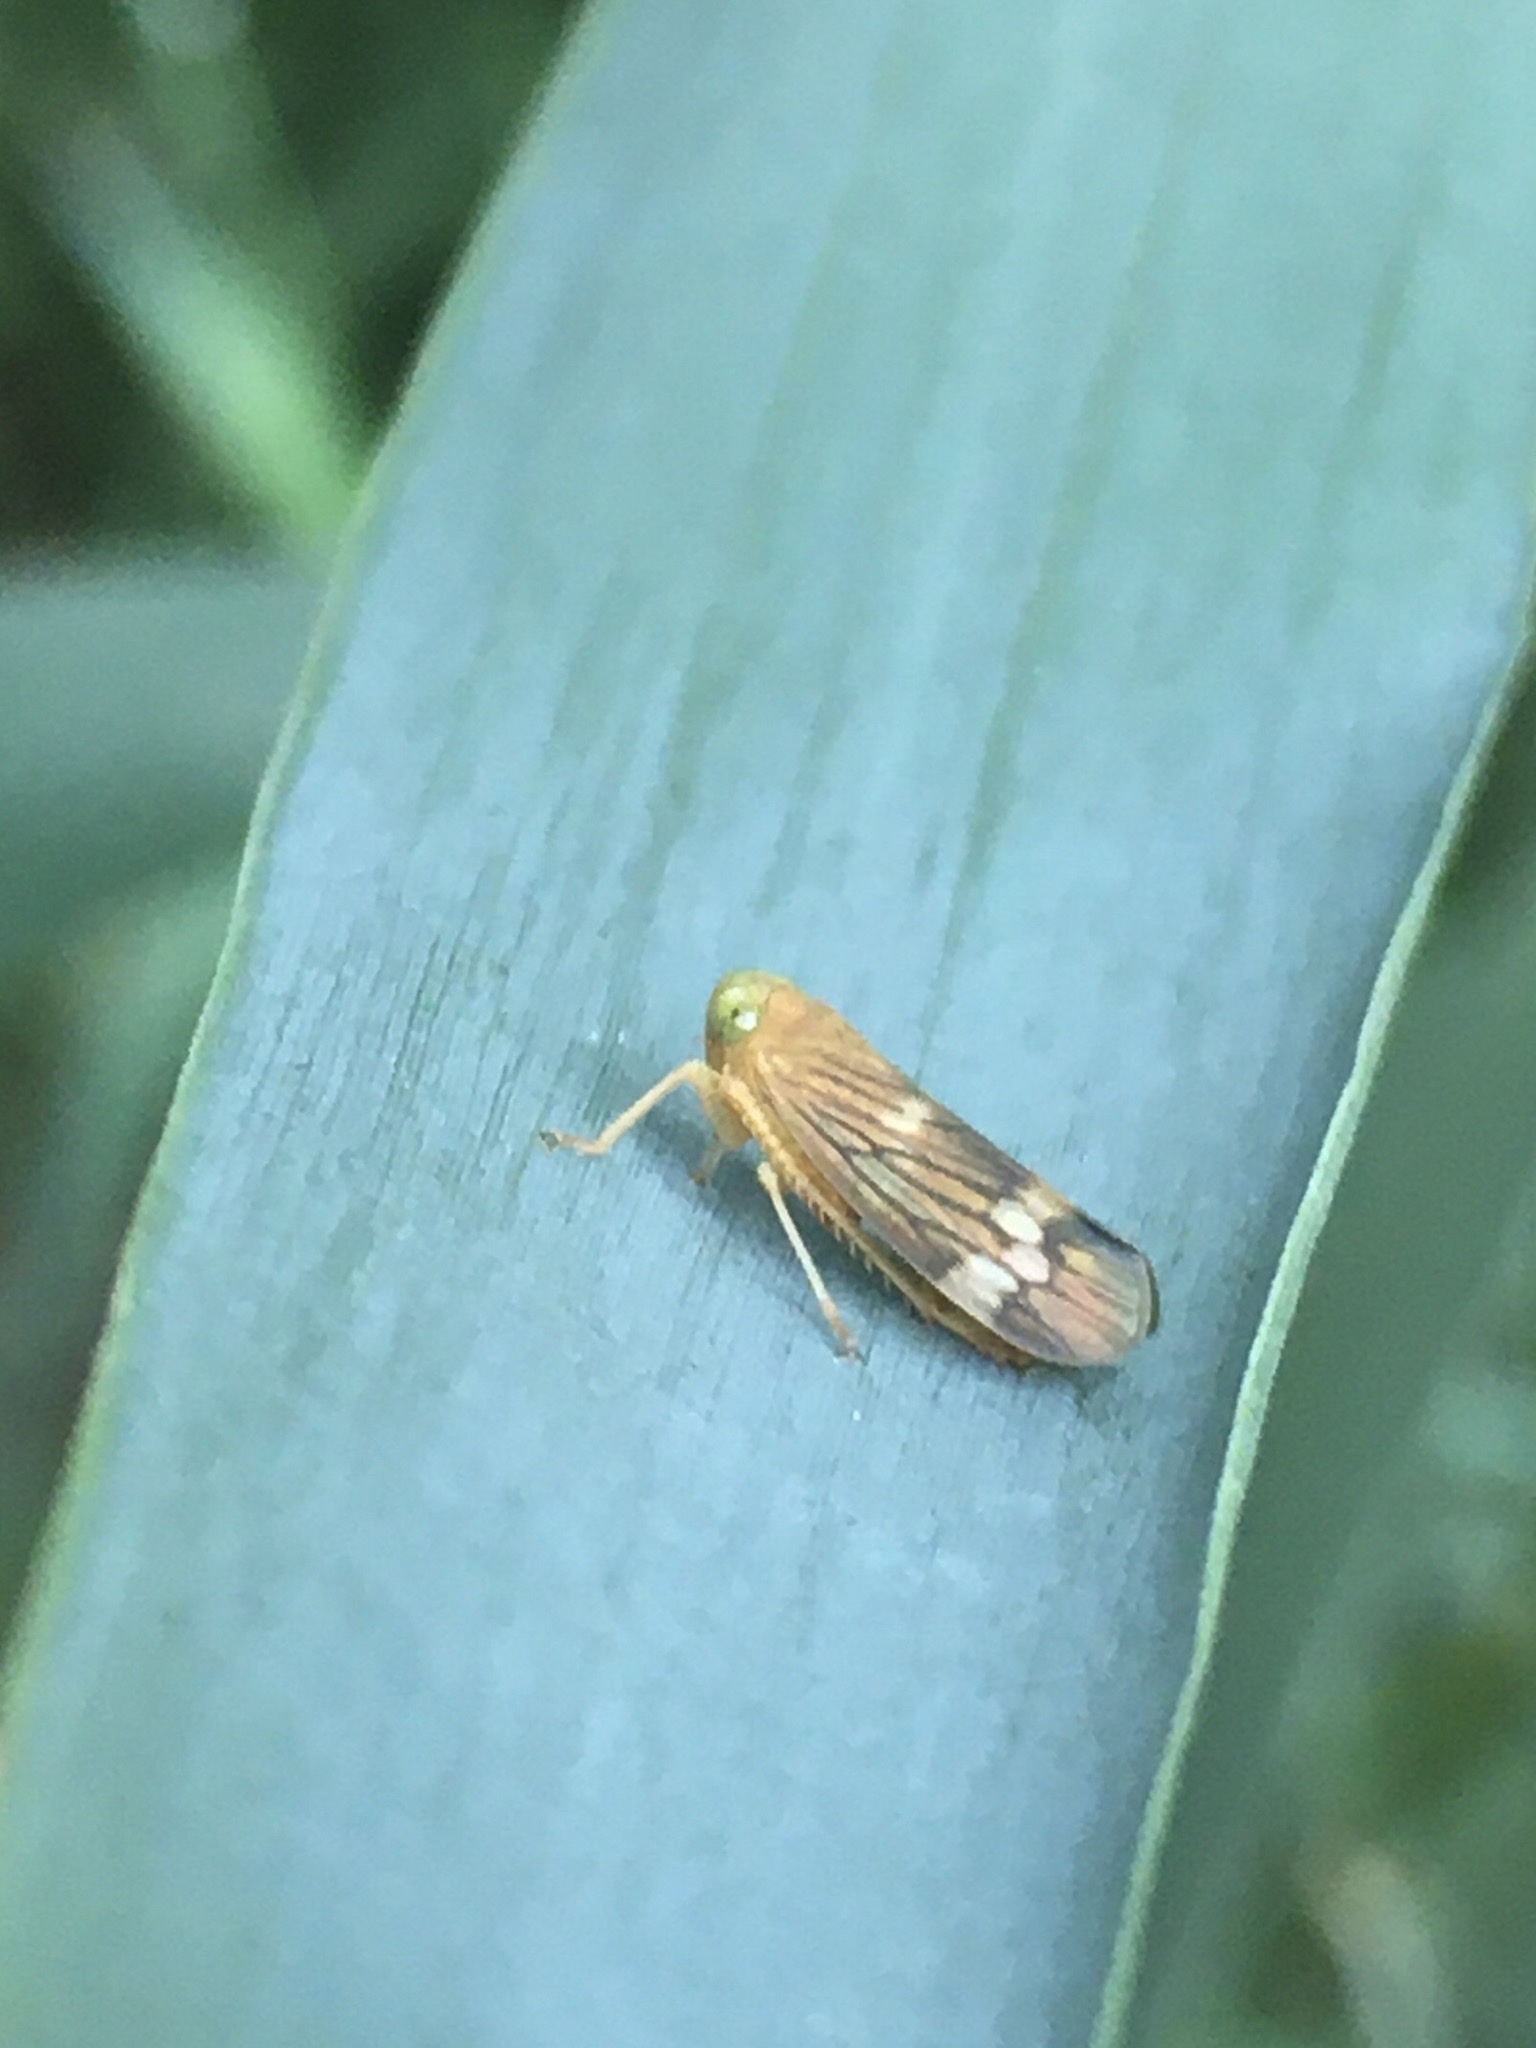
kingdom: Animalia
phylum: Arthropoda
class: Insecta
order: Hemiptera
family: Cicadellidae
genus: Jikradia
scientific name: Jikradia olitoria
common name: Coppery leafhopper
